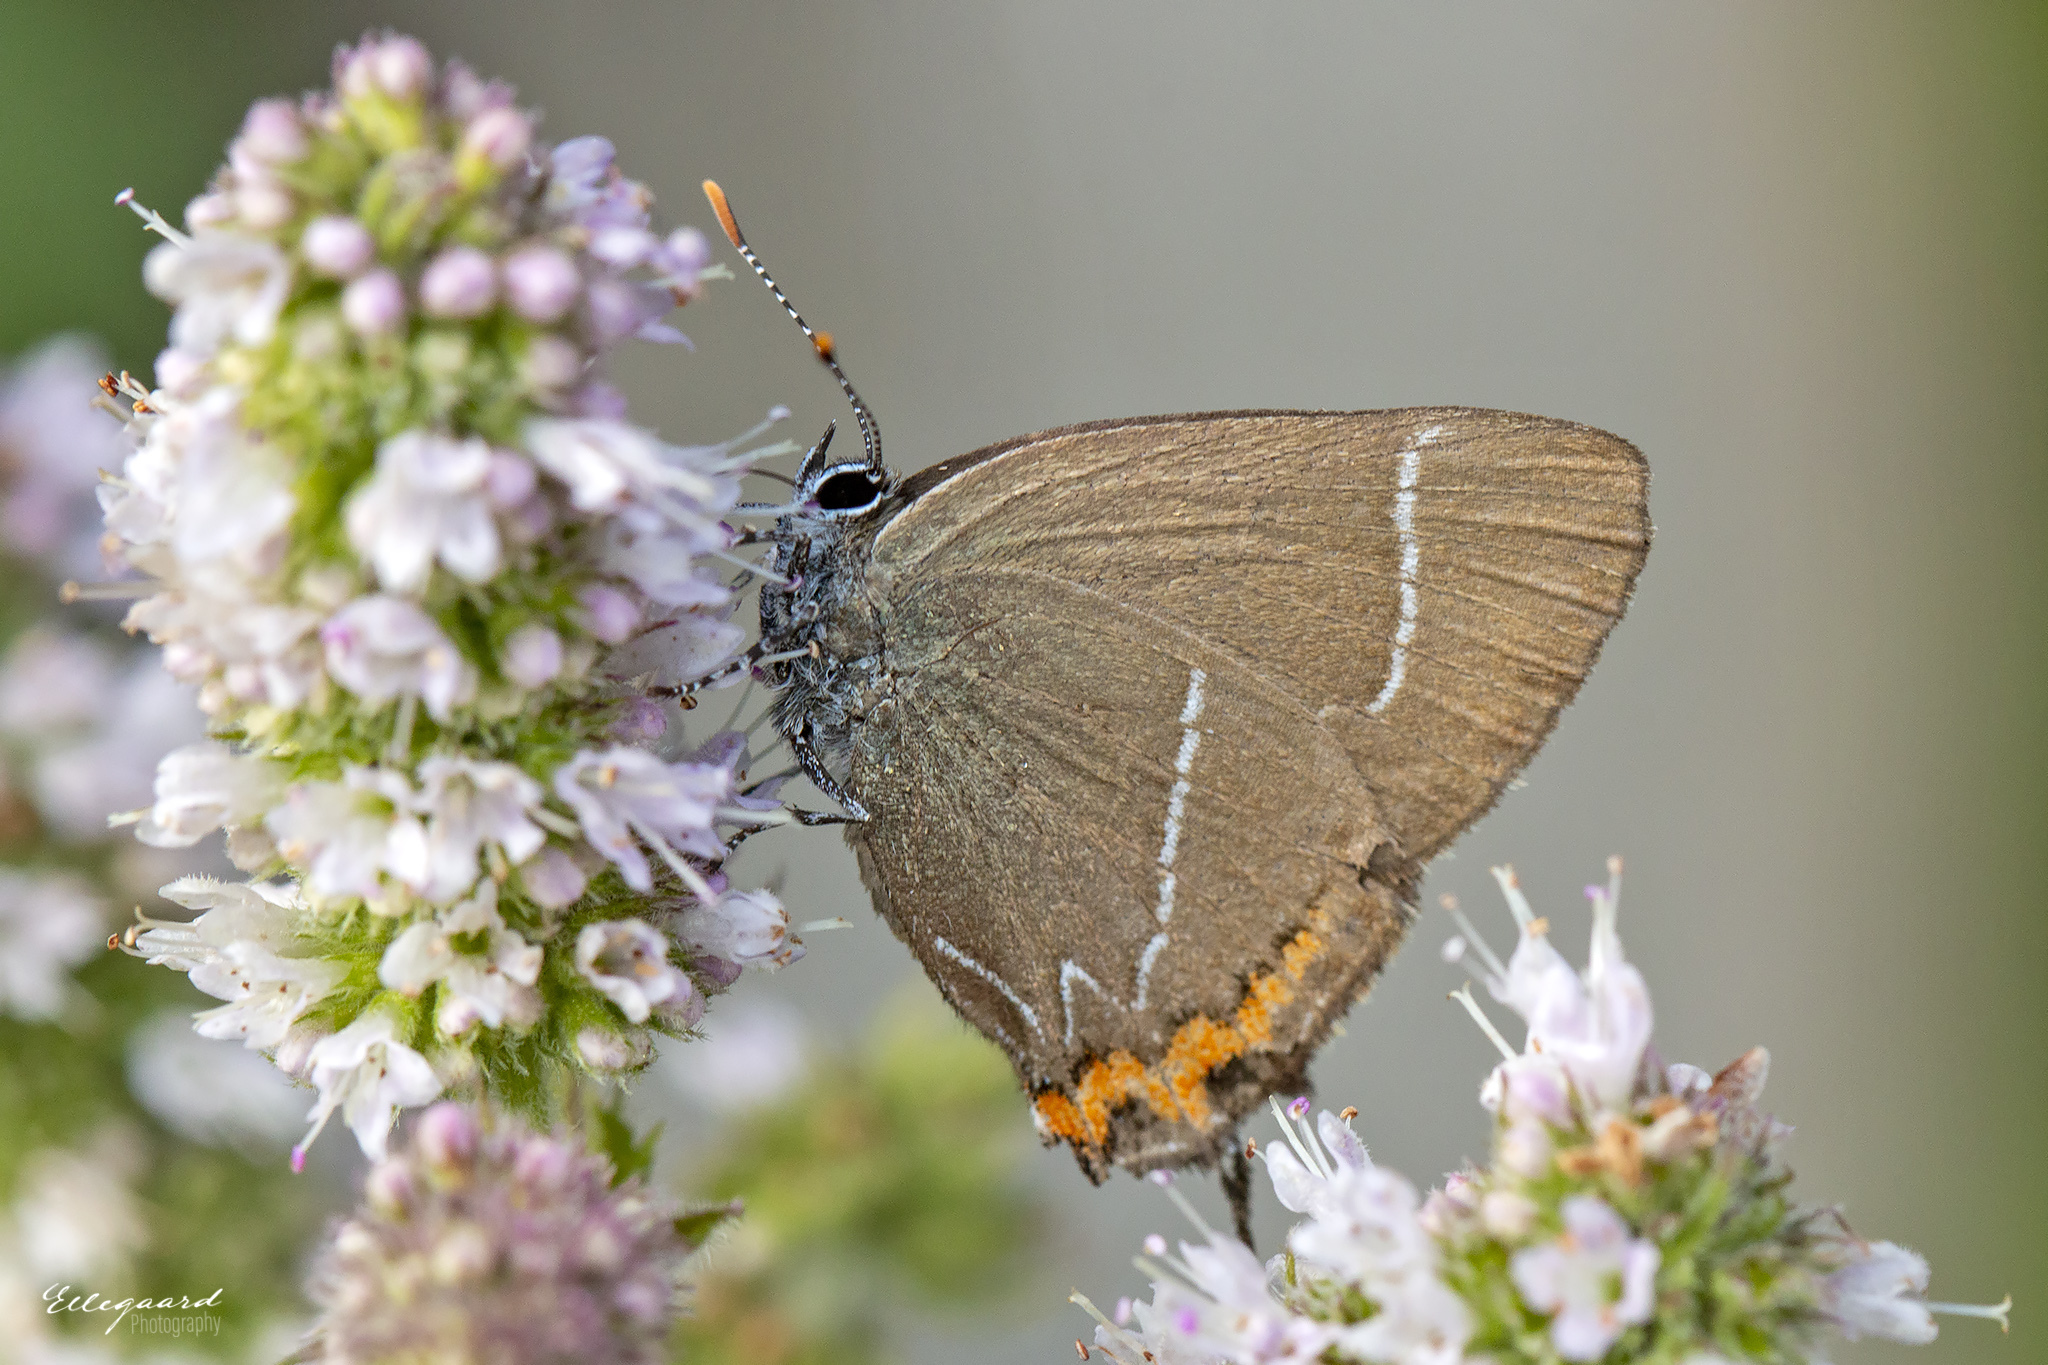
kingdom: Animalia
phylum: Arthropoda
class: Insecta
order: Lepidoptera
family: Lycaenidae
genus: Satyrium
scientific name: Satyrium w-album
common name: White-letter hairstreak
